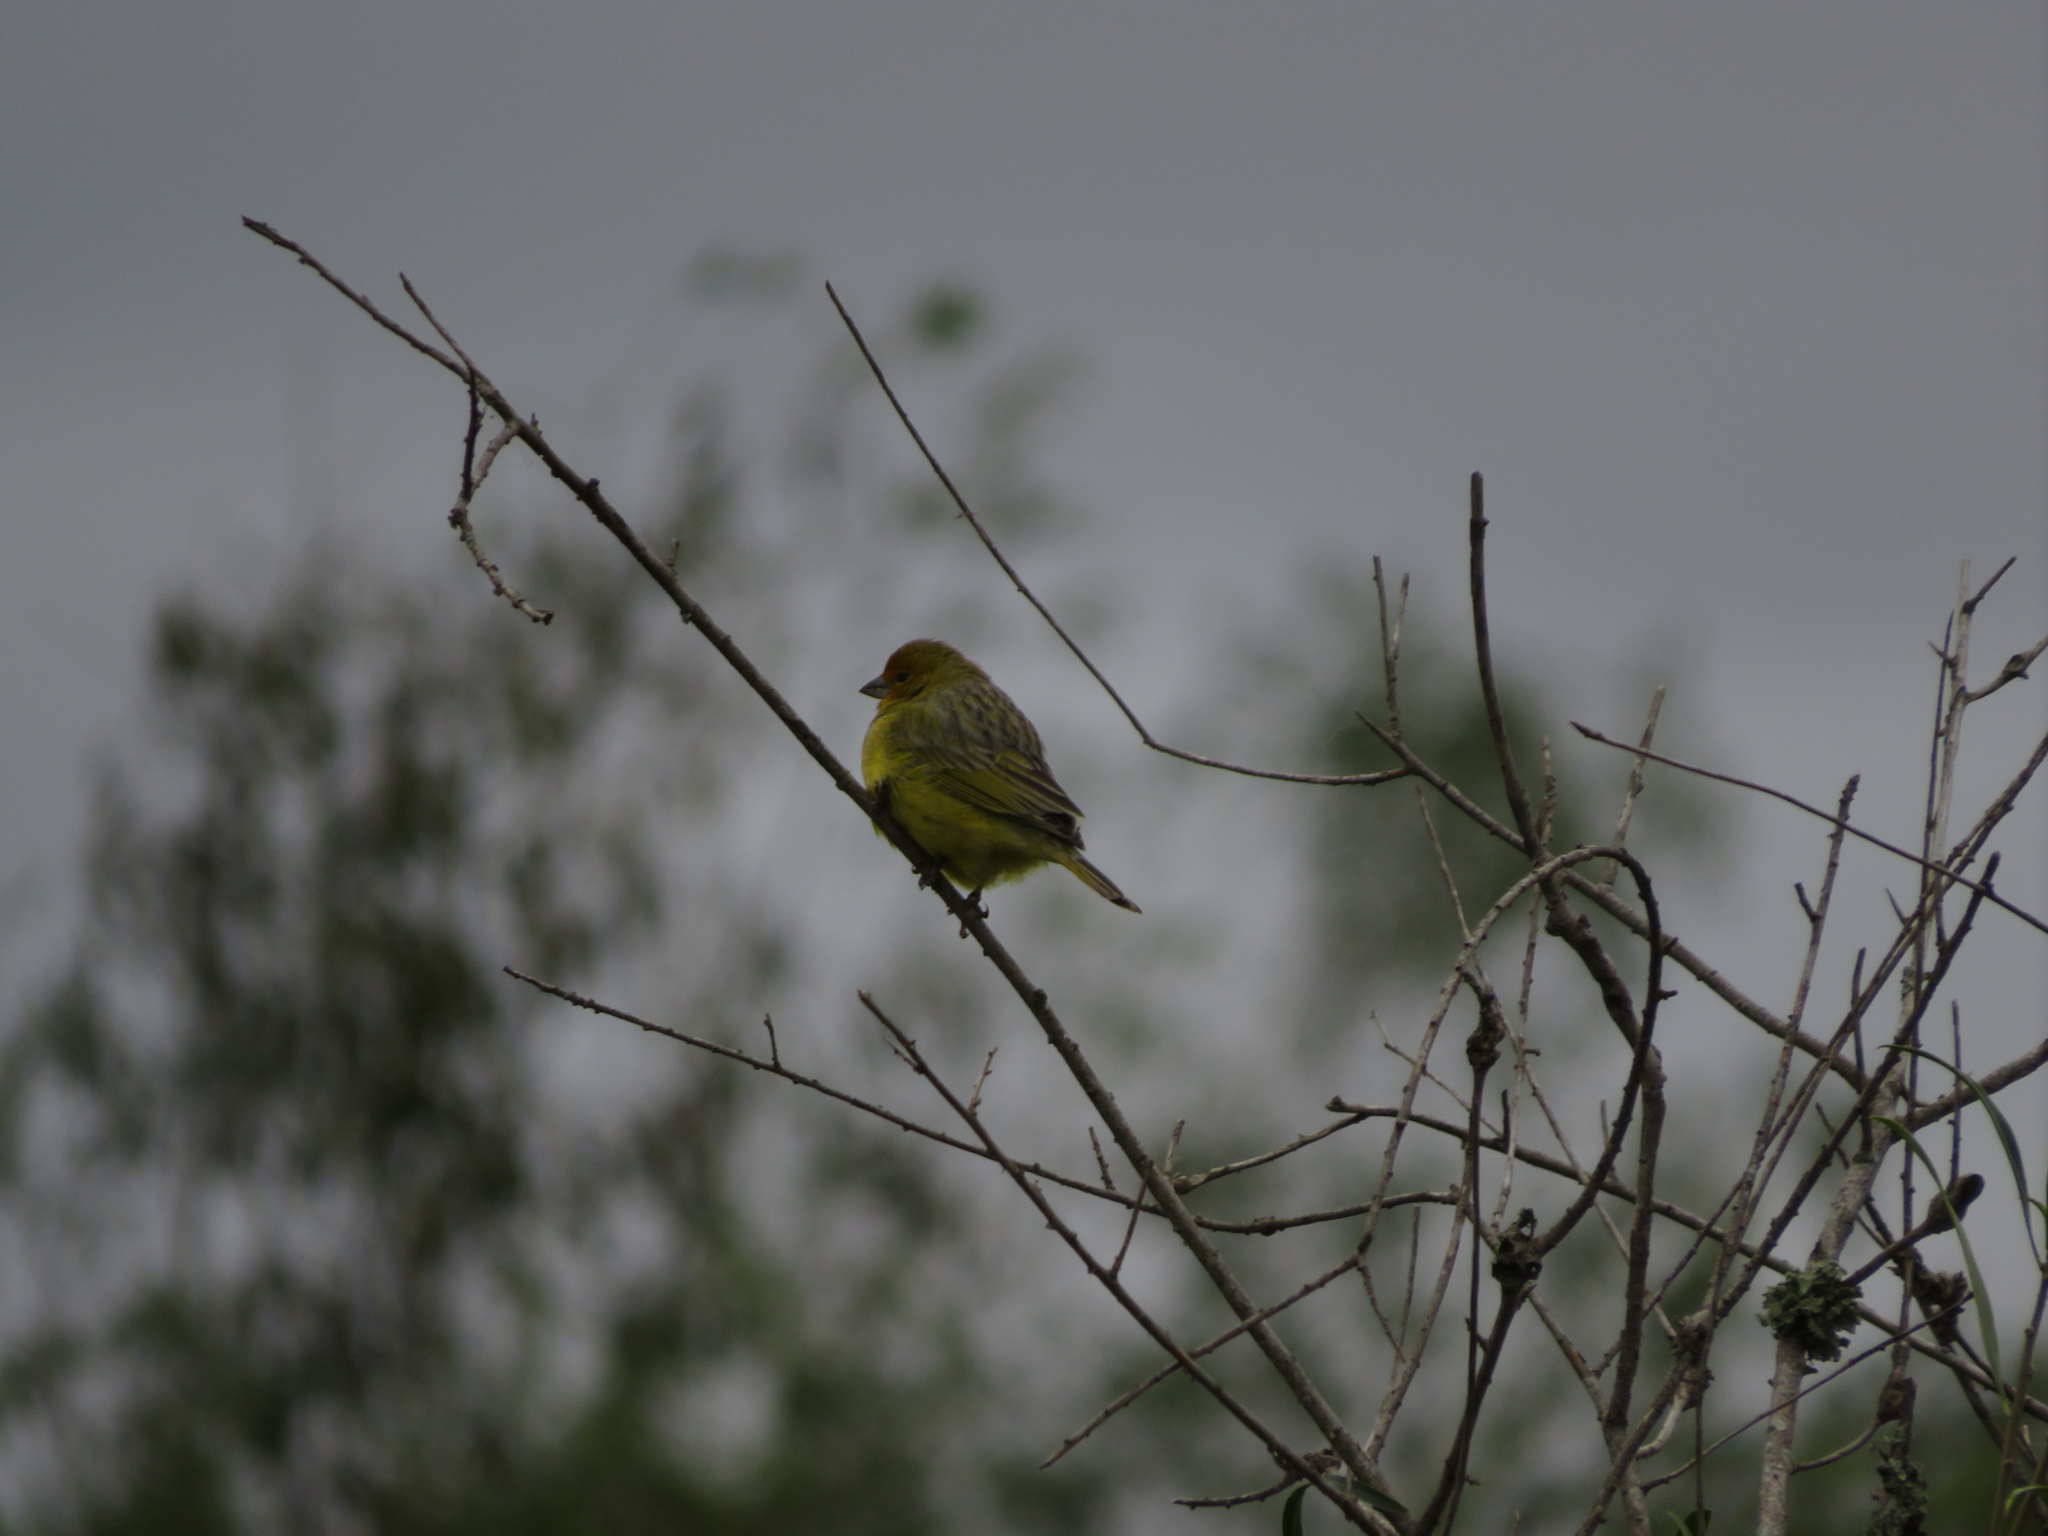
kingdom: Animalia
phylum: Chordata
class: Aves
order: Passeriformes
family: Thraupidae
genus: Sicalis
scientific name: Sicalis flaveola
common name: Saffron finch
